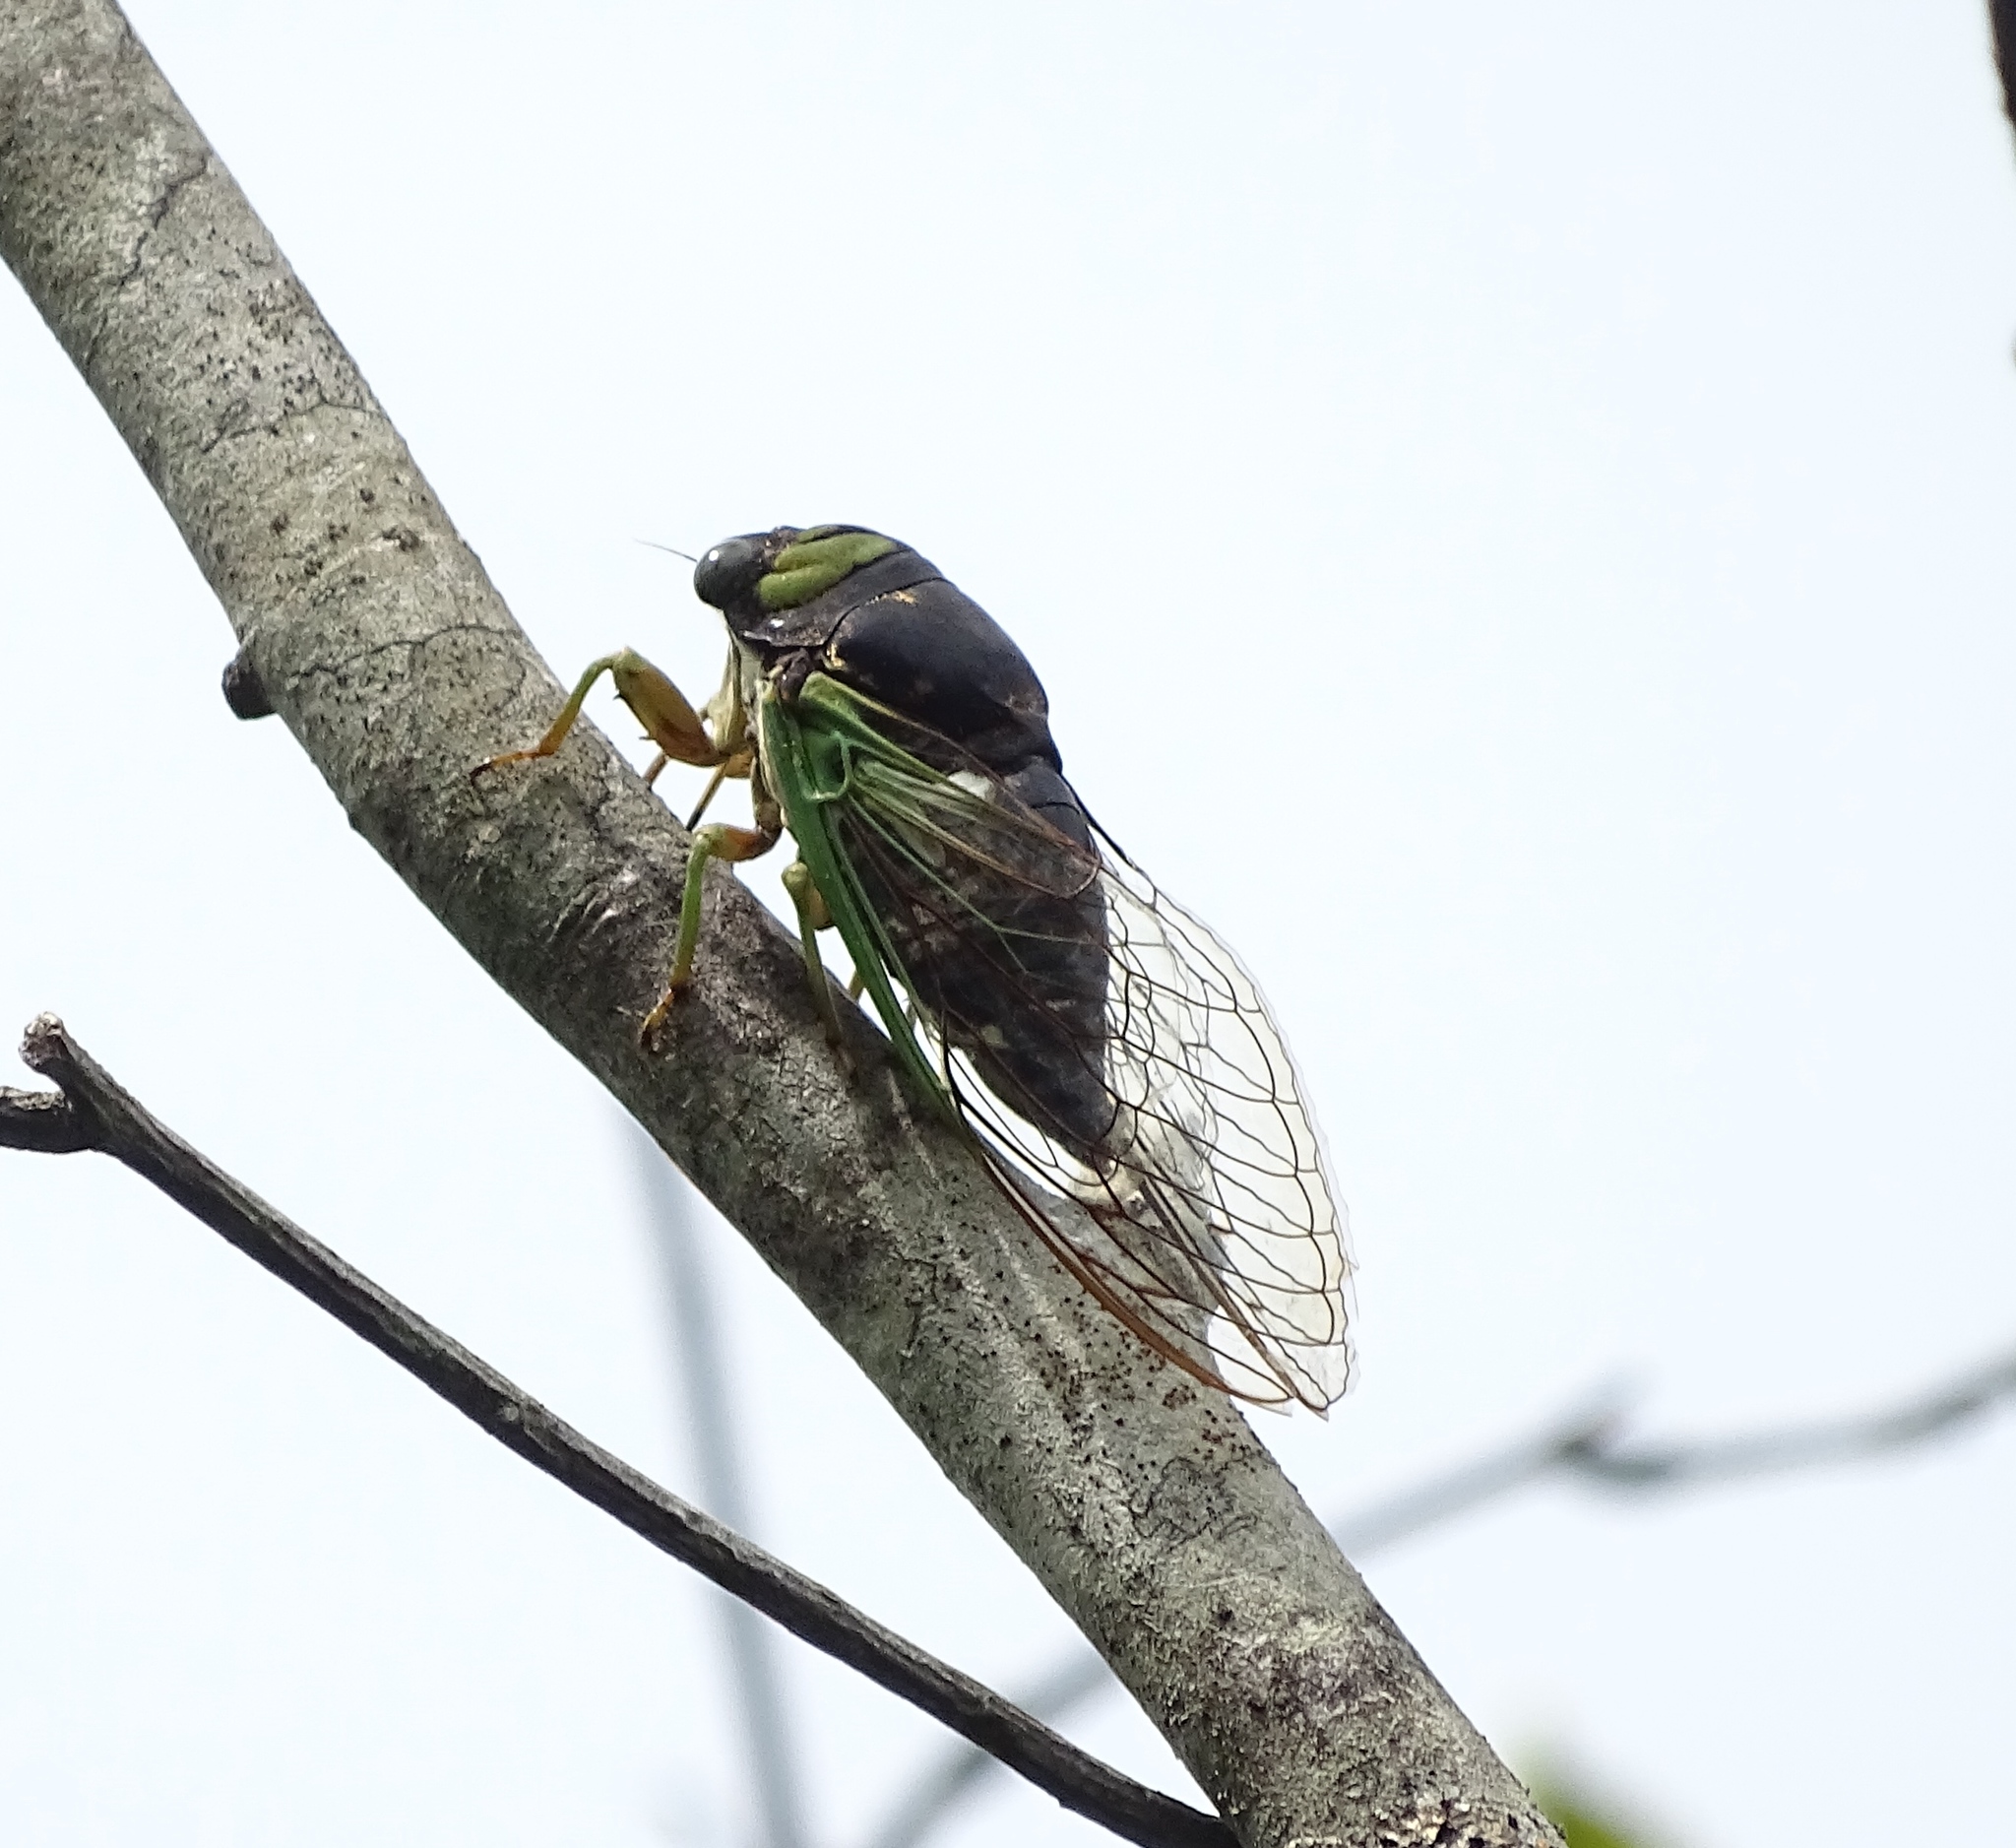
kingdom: Animalia
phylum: Arthropoda
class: Insecta
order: Hemiptera
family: Cicadidae
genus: Neotibicen
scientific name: Neotibicen tibicen
